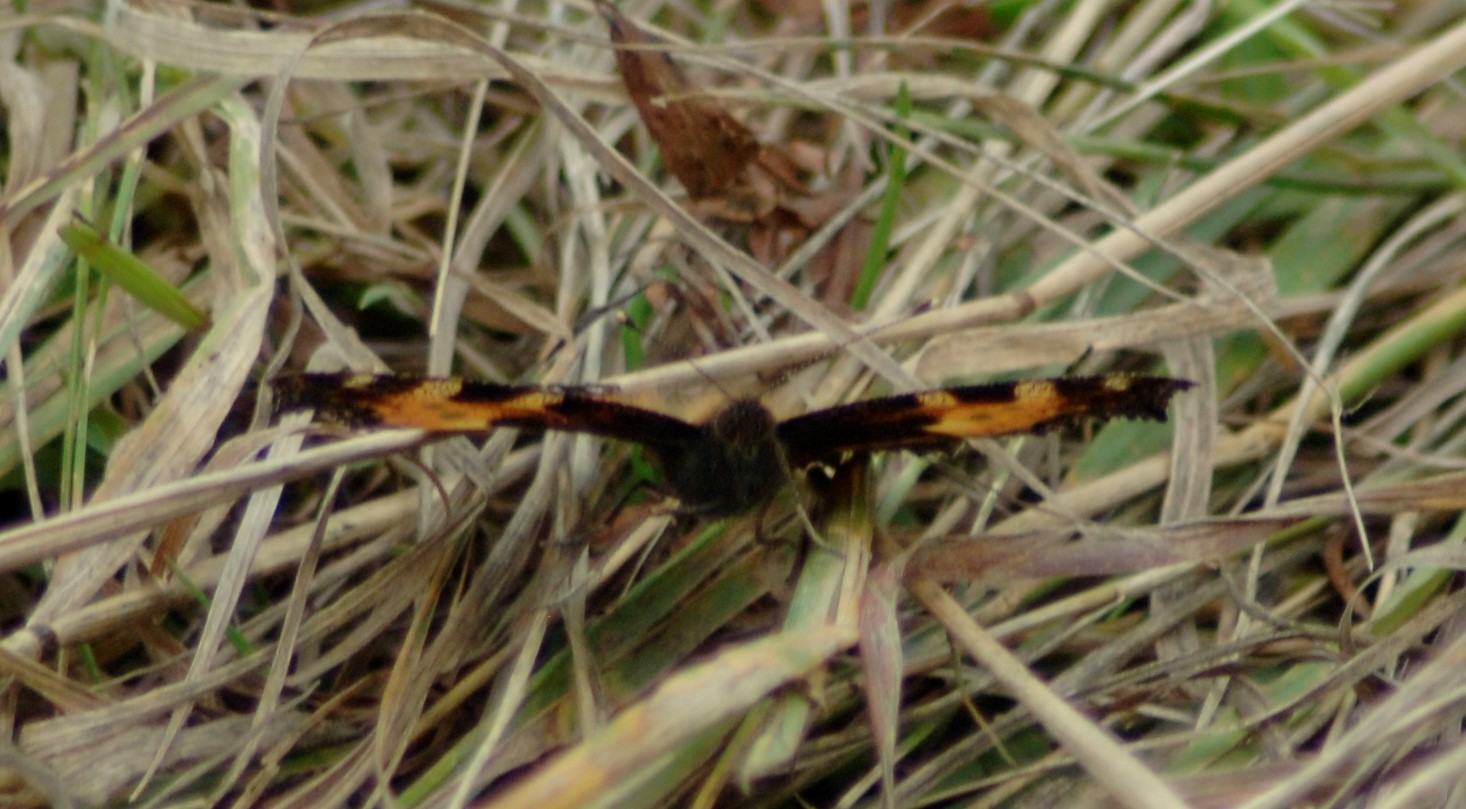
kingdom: Animalia
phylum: Arthropoda
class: Insecta
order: Lepidoptera
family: Nymphalidae
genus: Aglais
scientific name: Aglais urticae
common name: Small tortoiseshell
